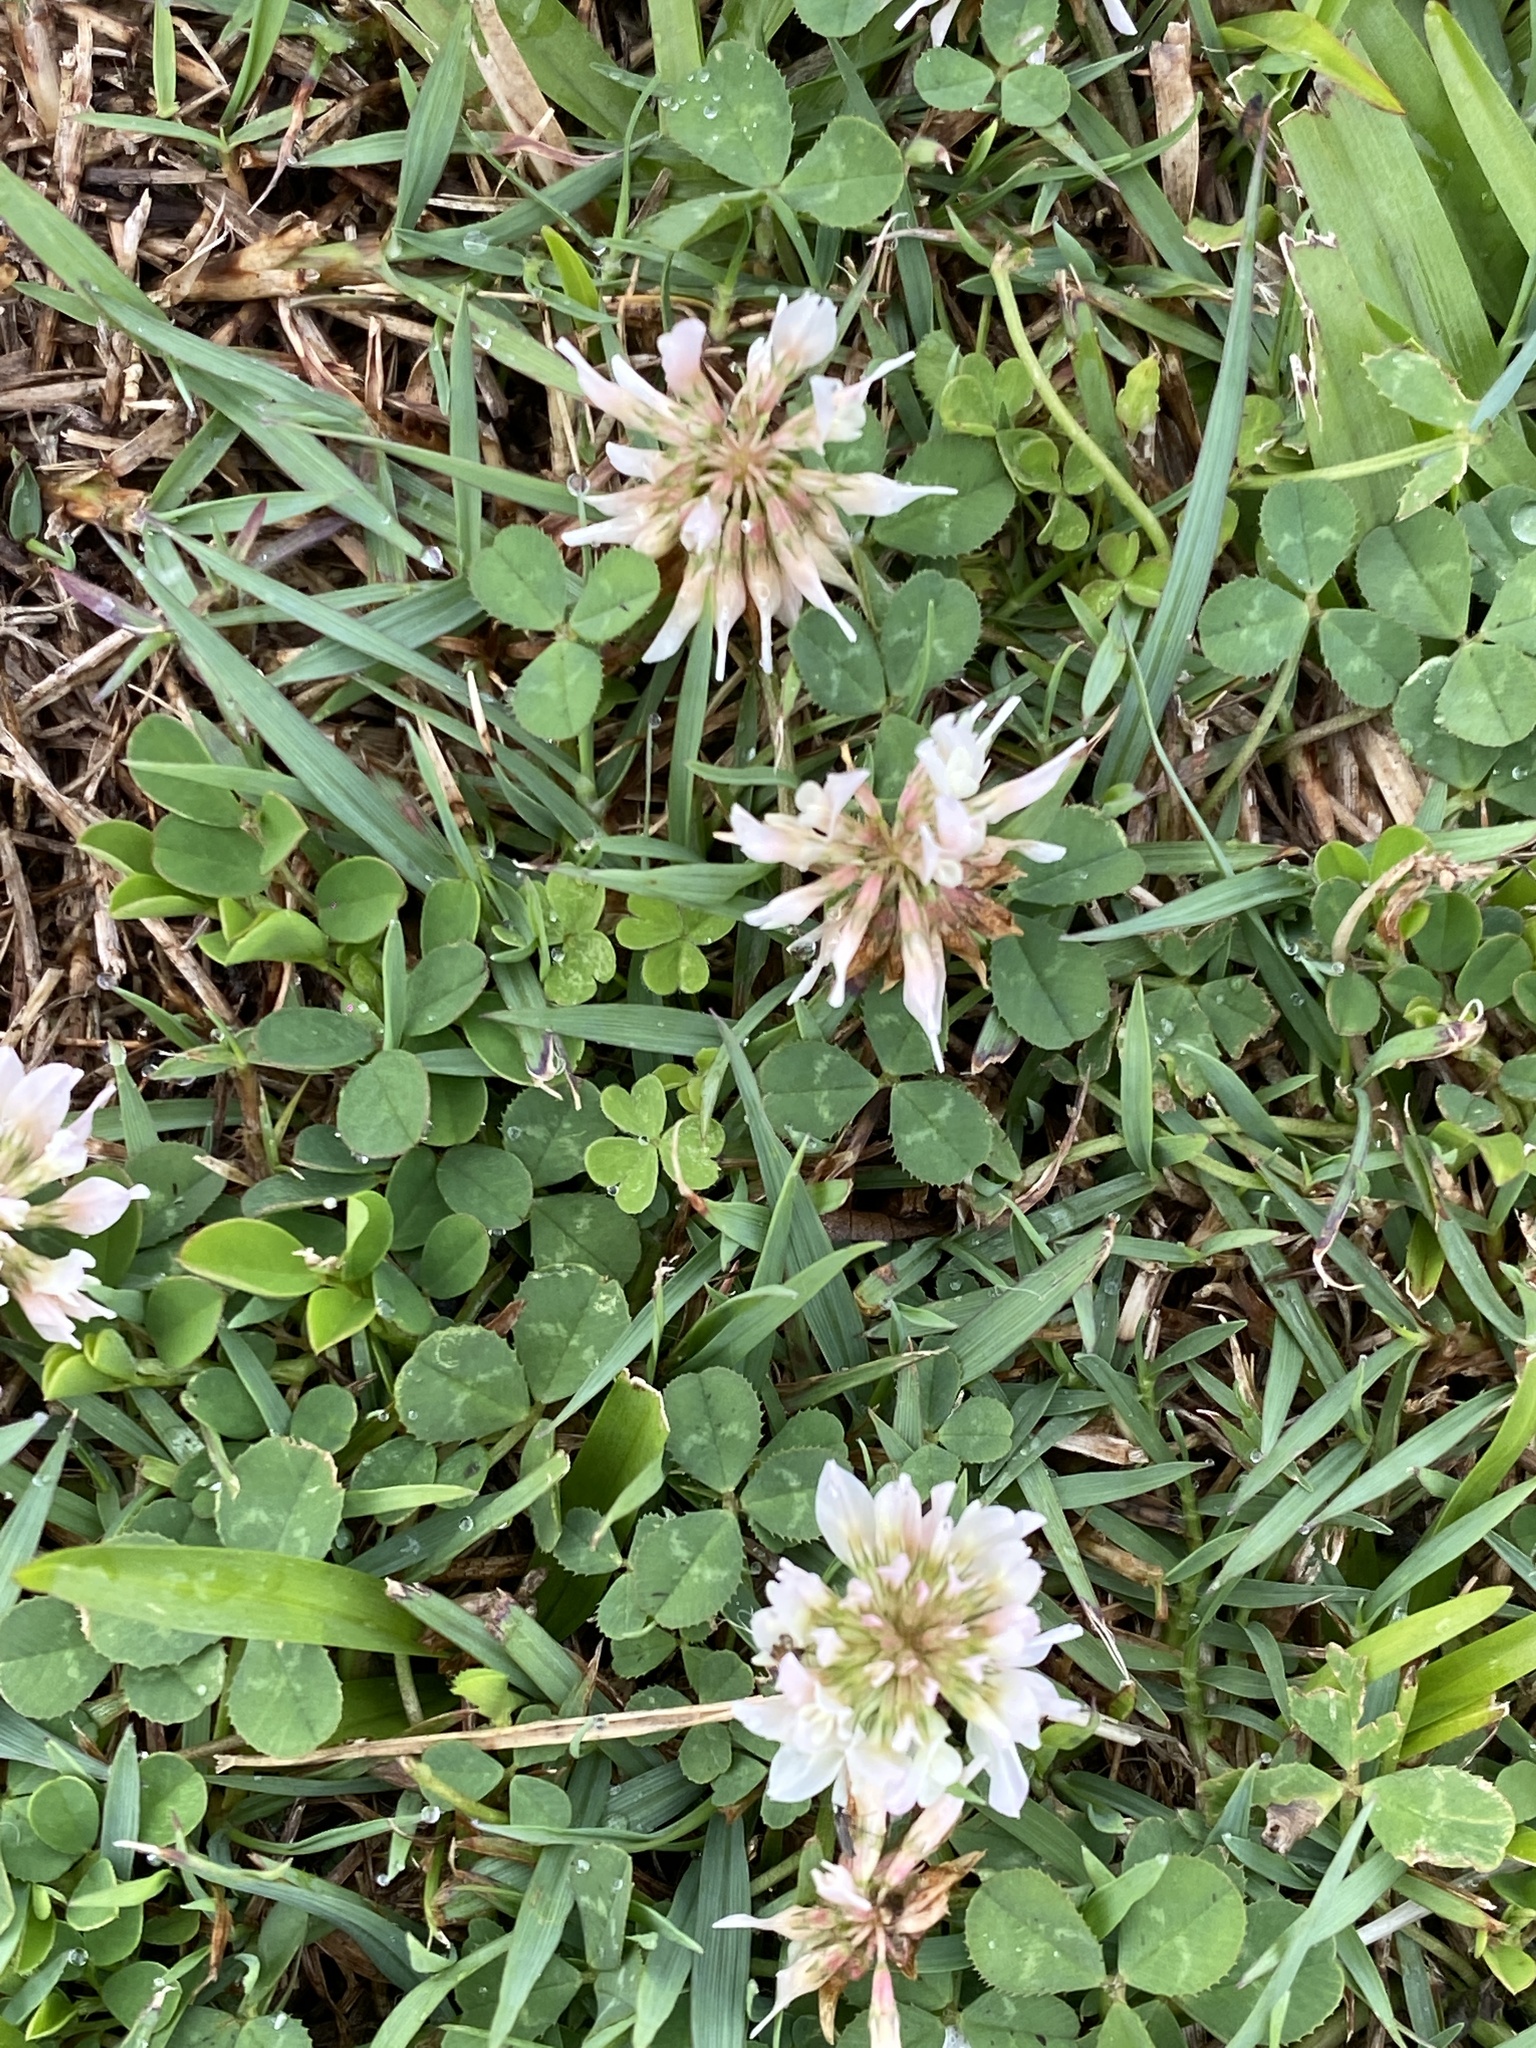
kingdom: Plantae
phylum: Tracheophyta
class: Magnoliopsida
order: Fabales
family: Fabaceae
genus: Trifolium
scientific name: Trifolium repens
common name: White clover
